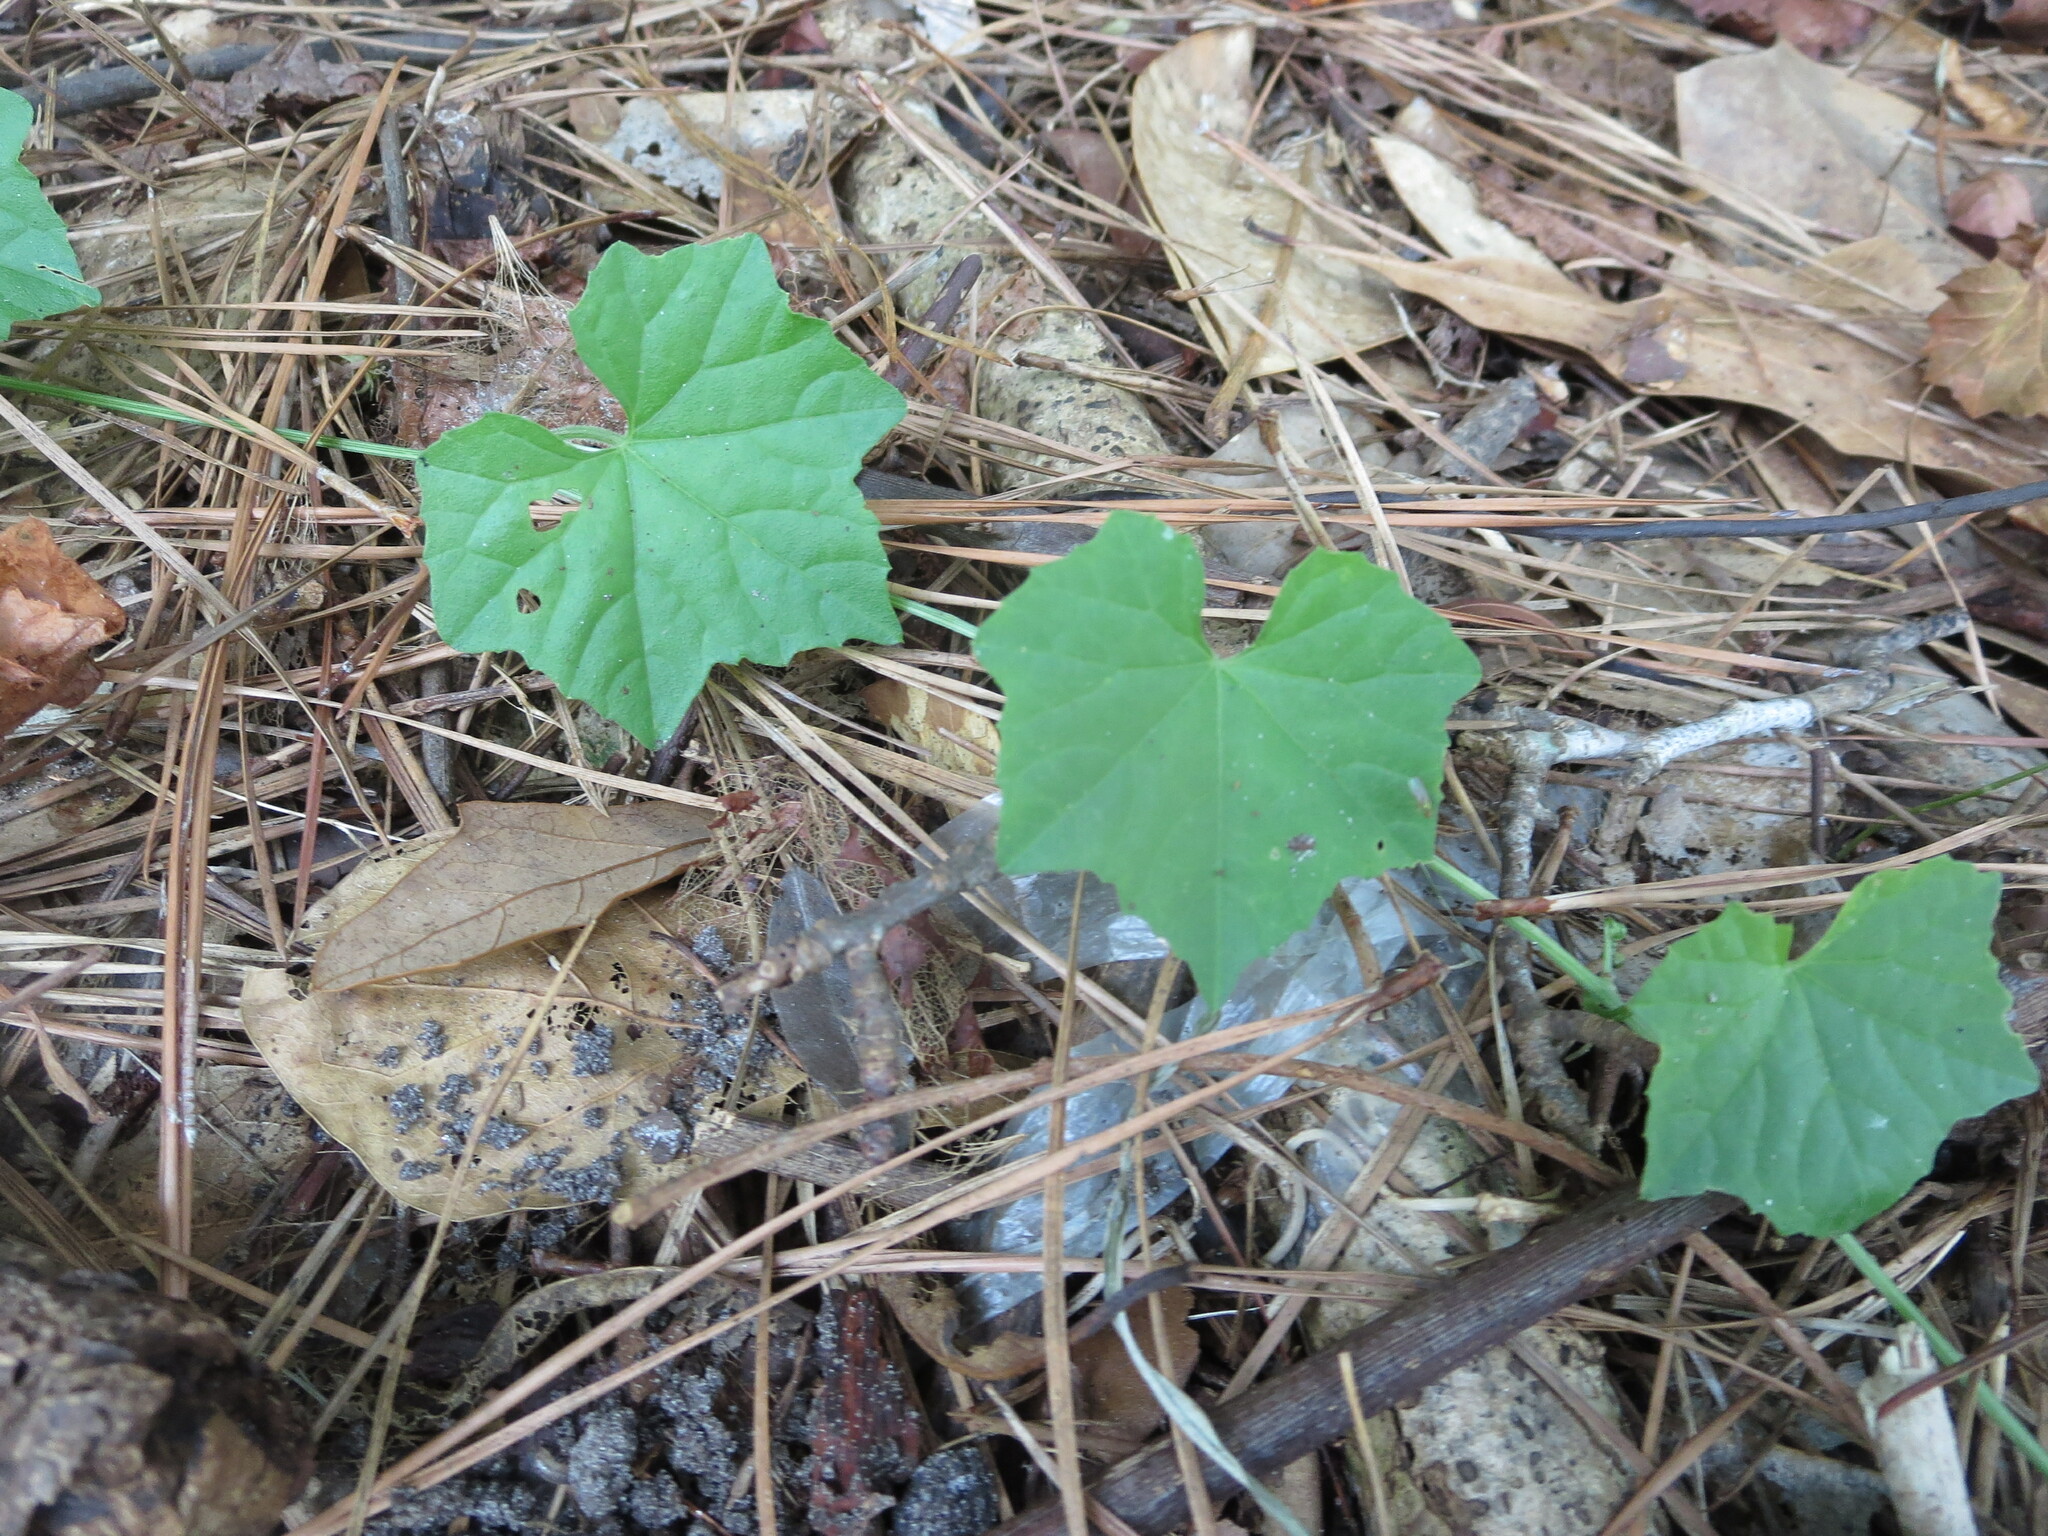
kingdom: Plantae
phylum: Tracheophyta
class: Magnoliopsida
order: Cucurbitales
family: Cucurbitaceae
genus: Melothria
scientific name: Melothria pendula
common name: Creeping-cucumber
